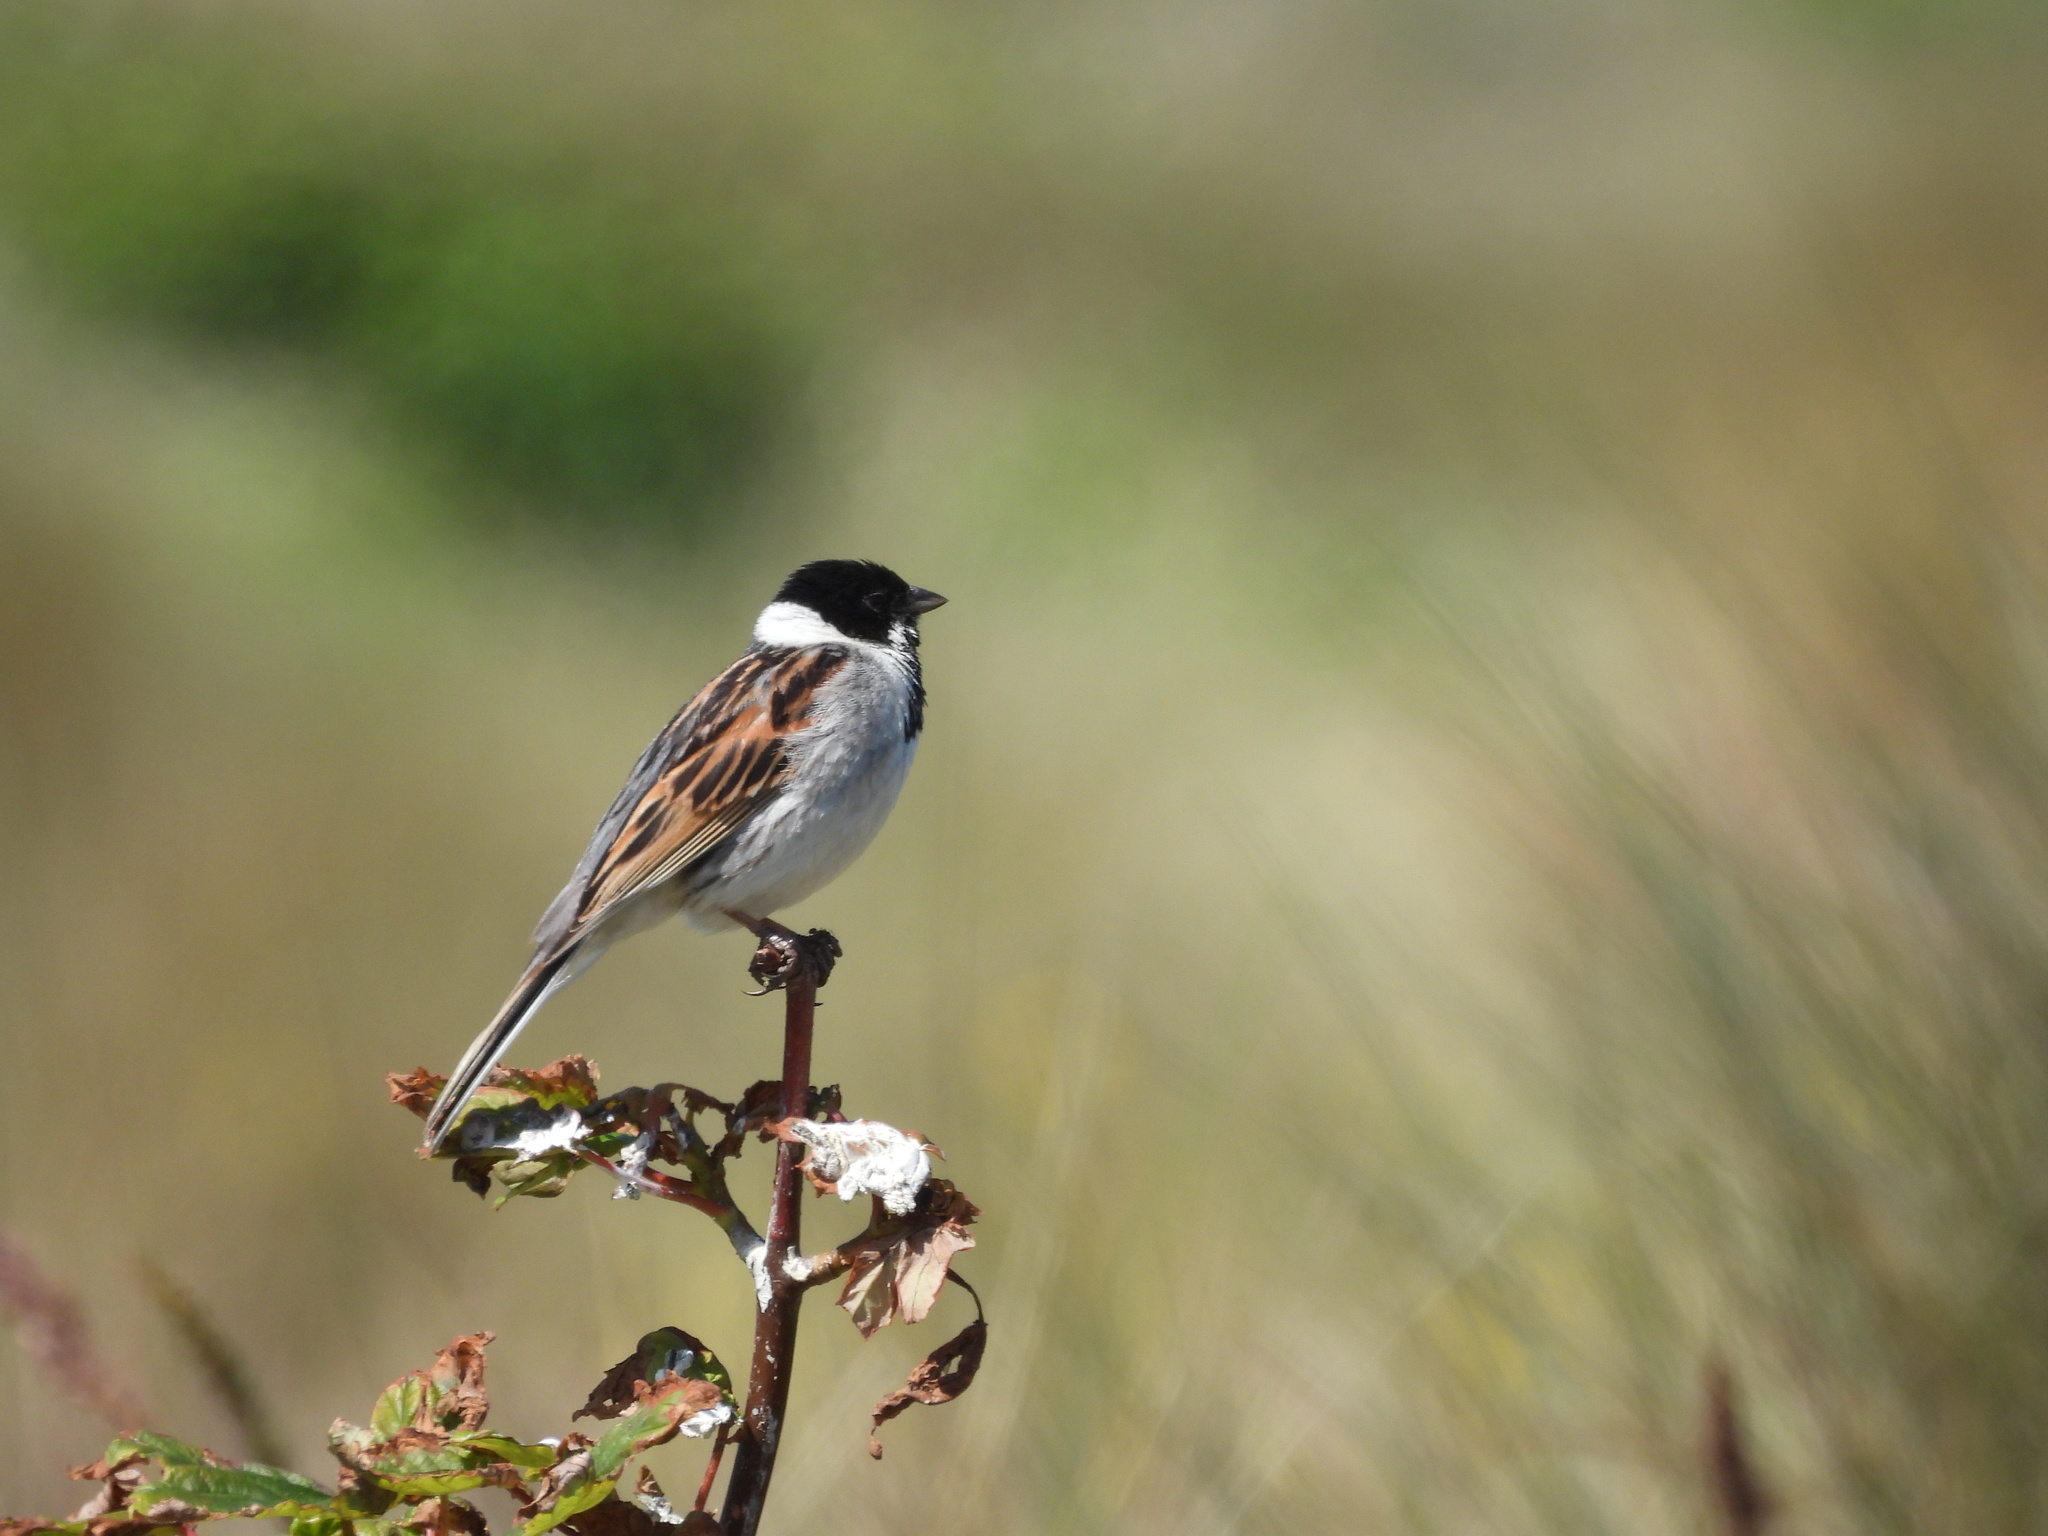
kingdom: Animalia
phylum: Chordata
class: Aves
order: Passeriformes
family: Emberizidae
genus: Emberiza
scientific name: Emberiza schoeniclus
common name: Reed bunting
